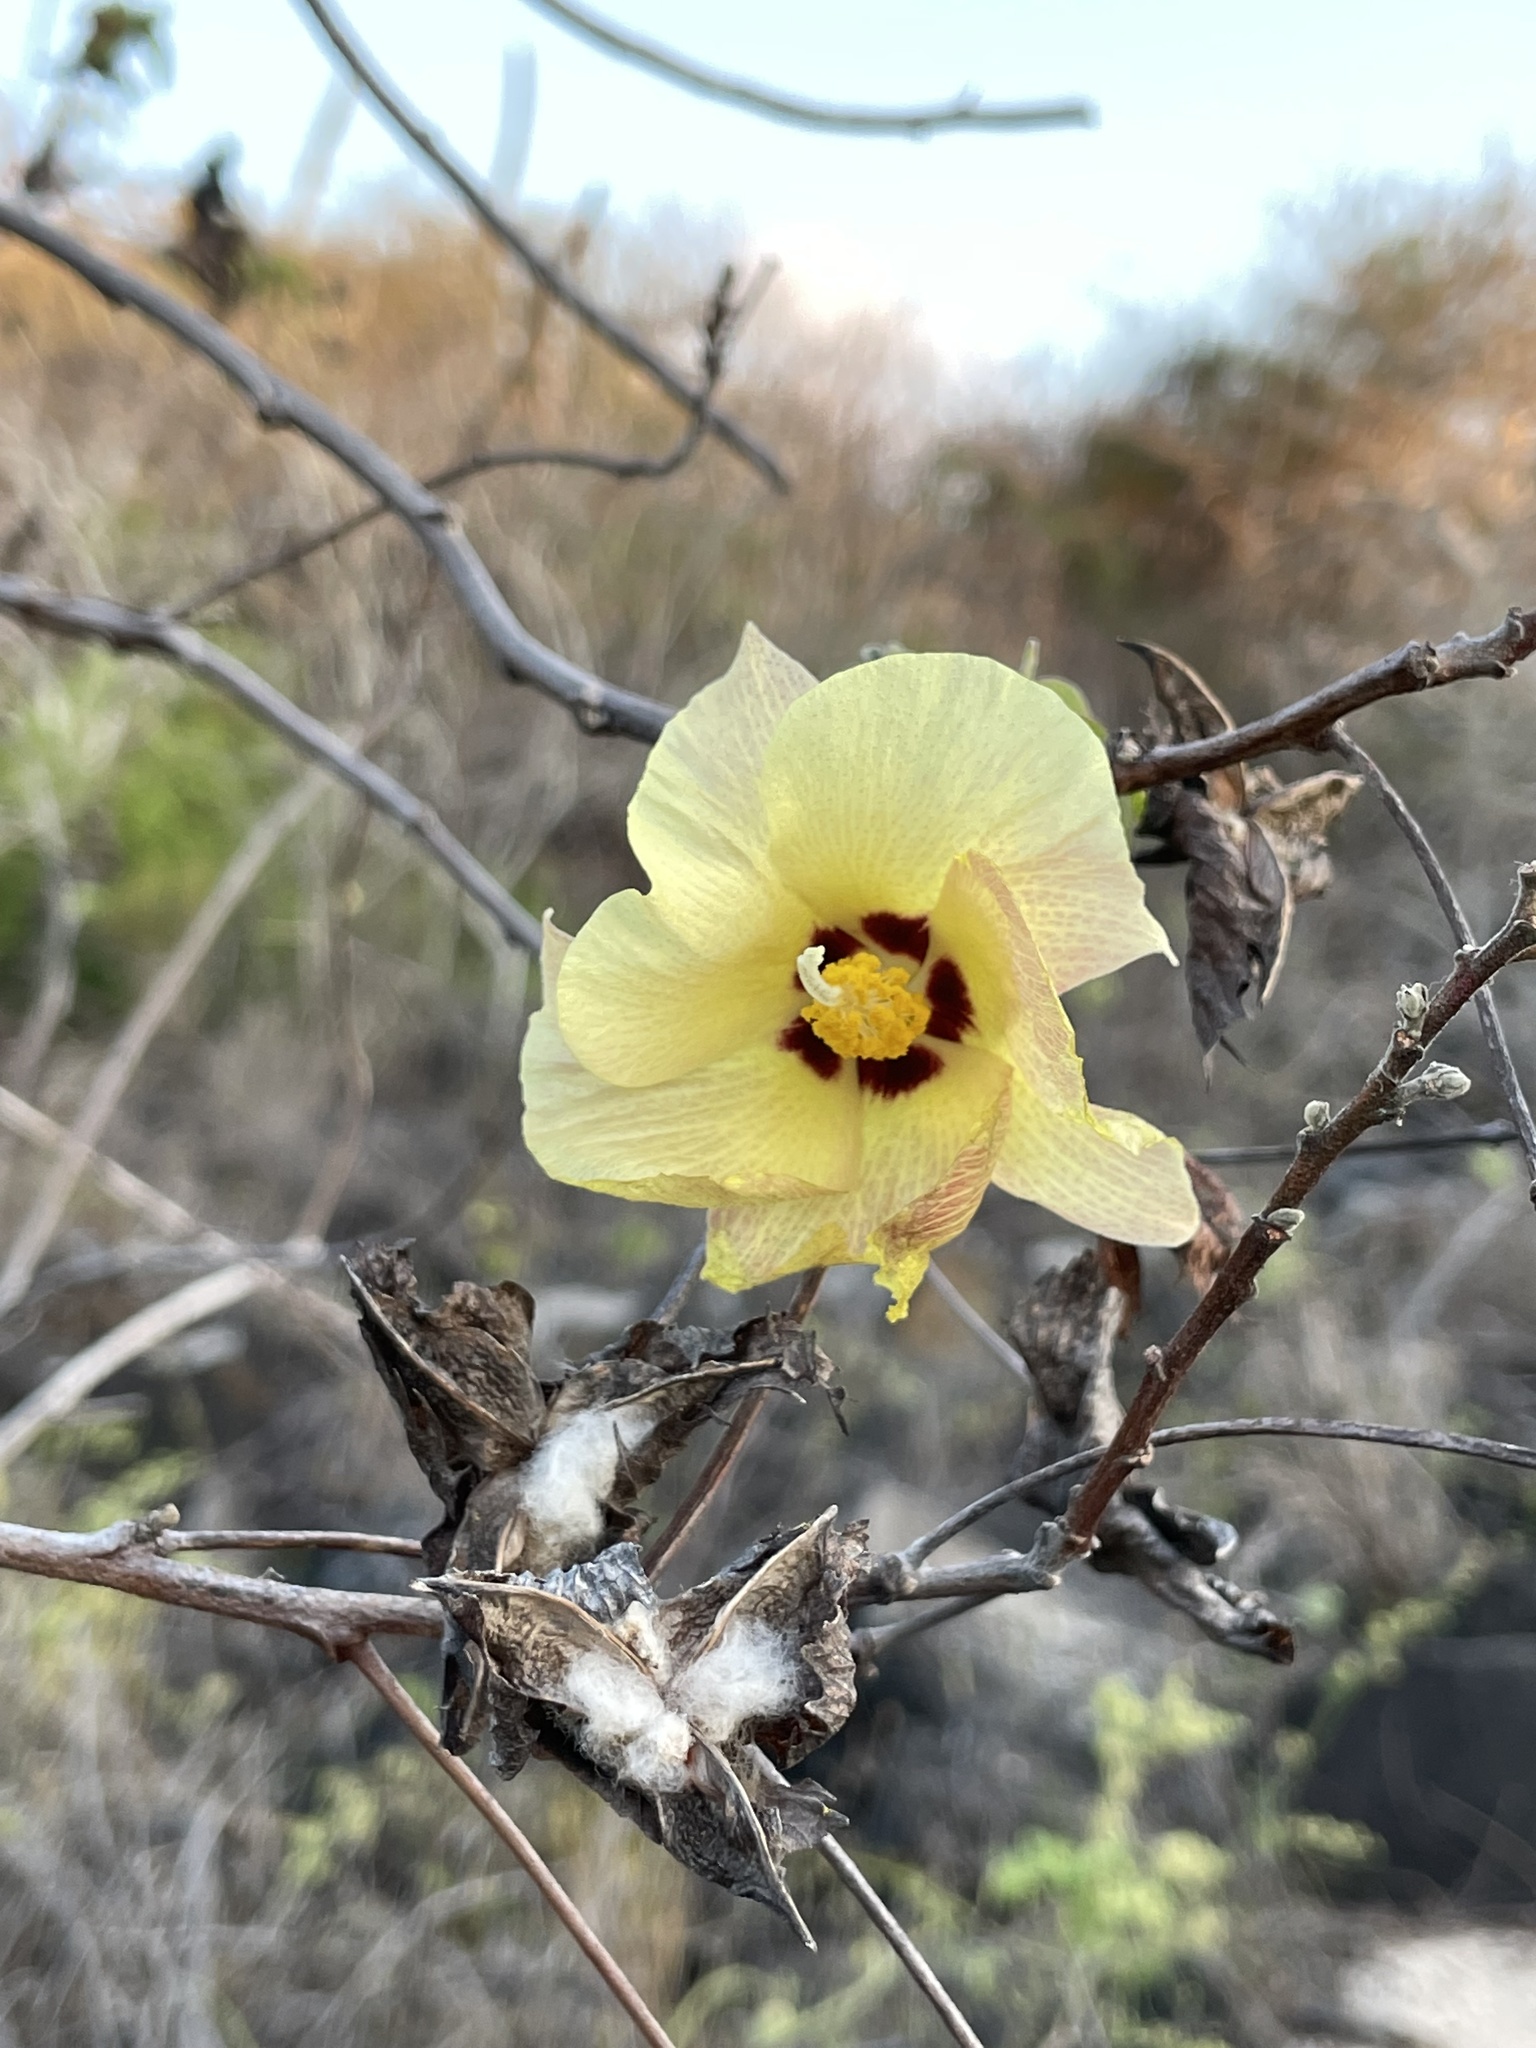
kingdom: Plantae
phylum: Tracheophyta
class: Magnoliopsida
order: Malvales
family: Malvaceae
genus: Gossypium
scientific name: Gossypium darwinii
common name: Darwin's cotton
